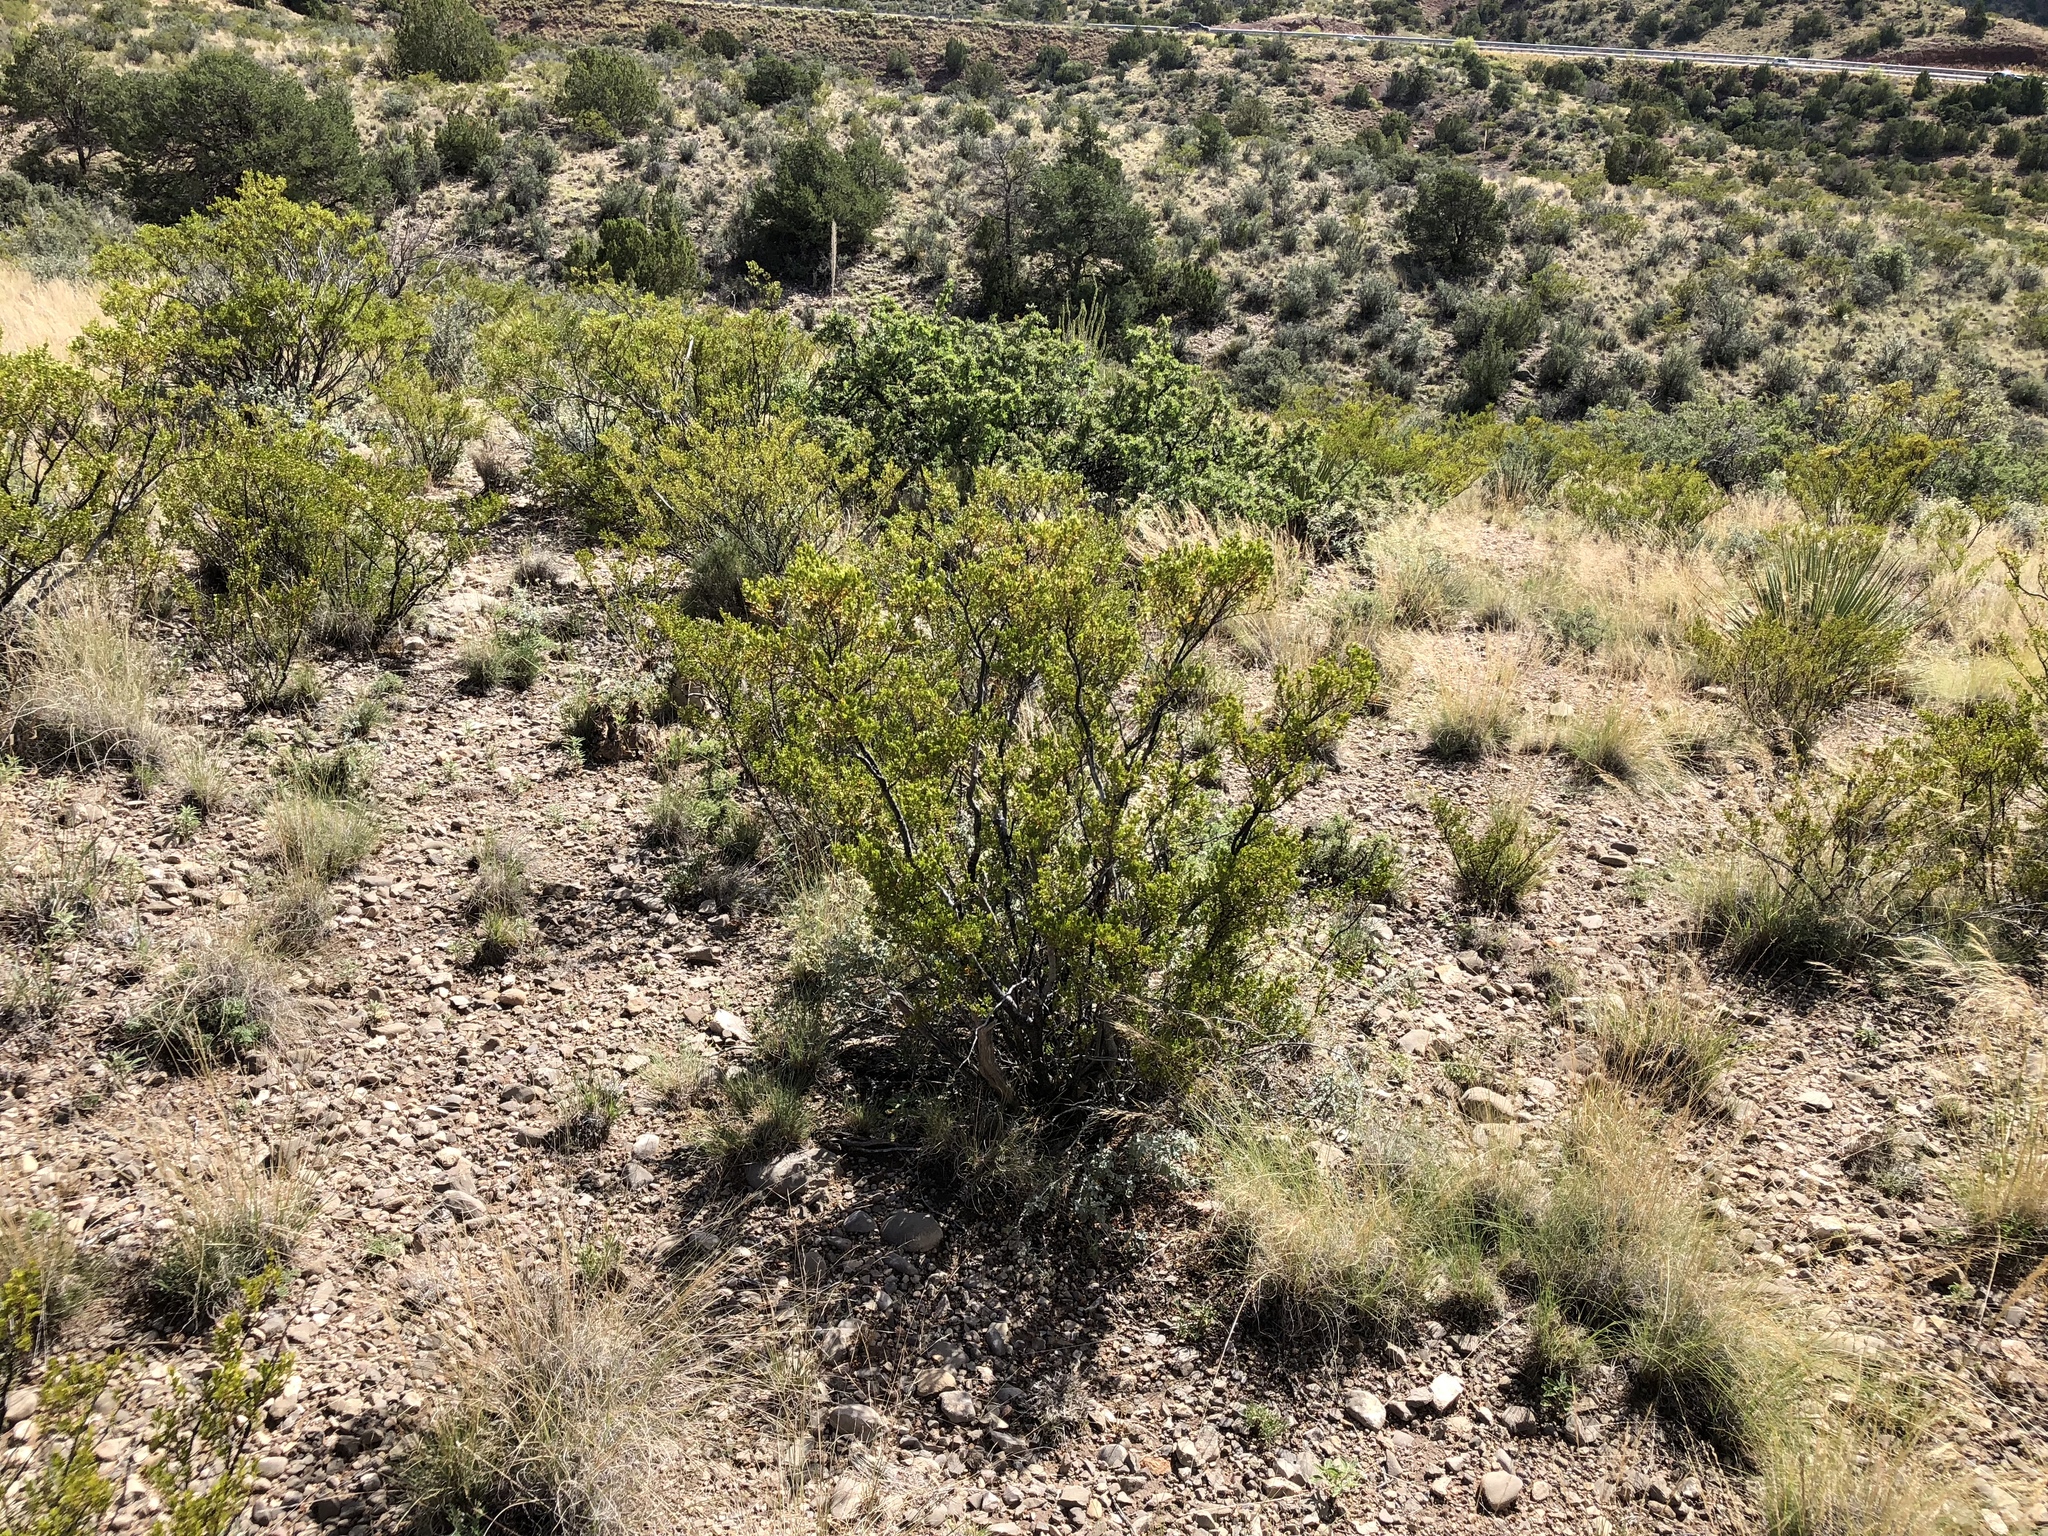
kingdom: Plantae
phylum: Tracheophyta
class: Magnoliopsida
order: Zygophyllales
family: Zygophyllaceae
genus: Larrea
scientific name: Larrea tridentata
